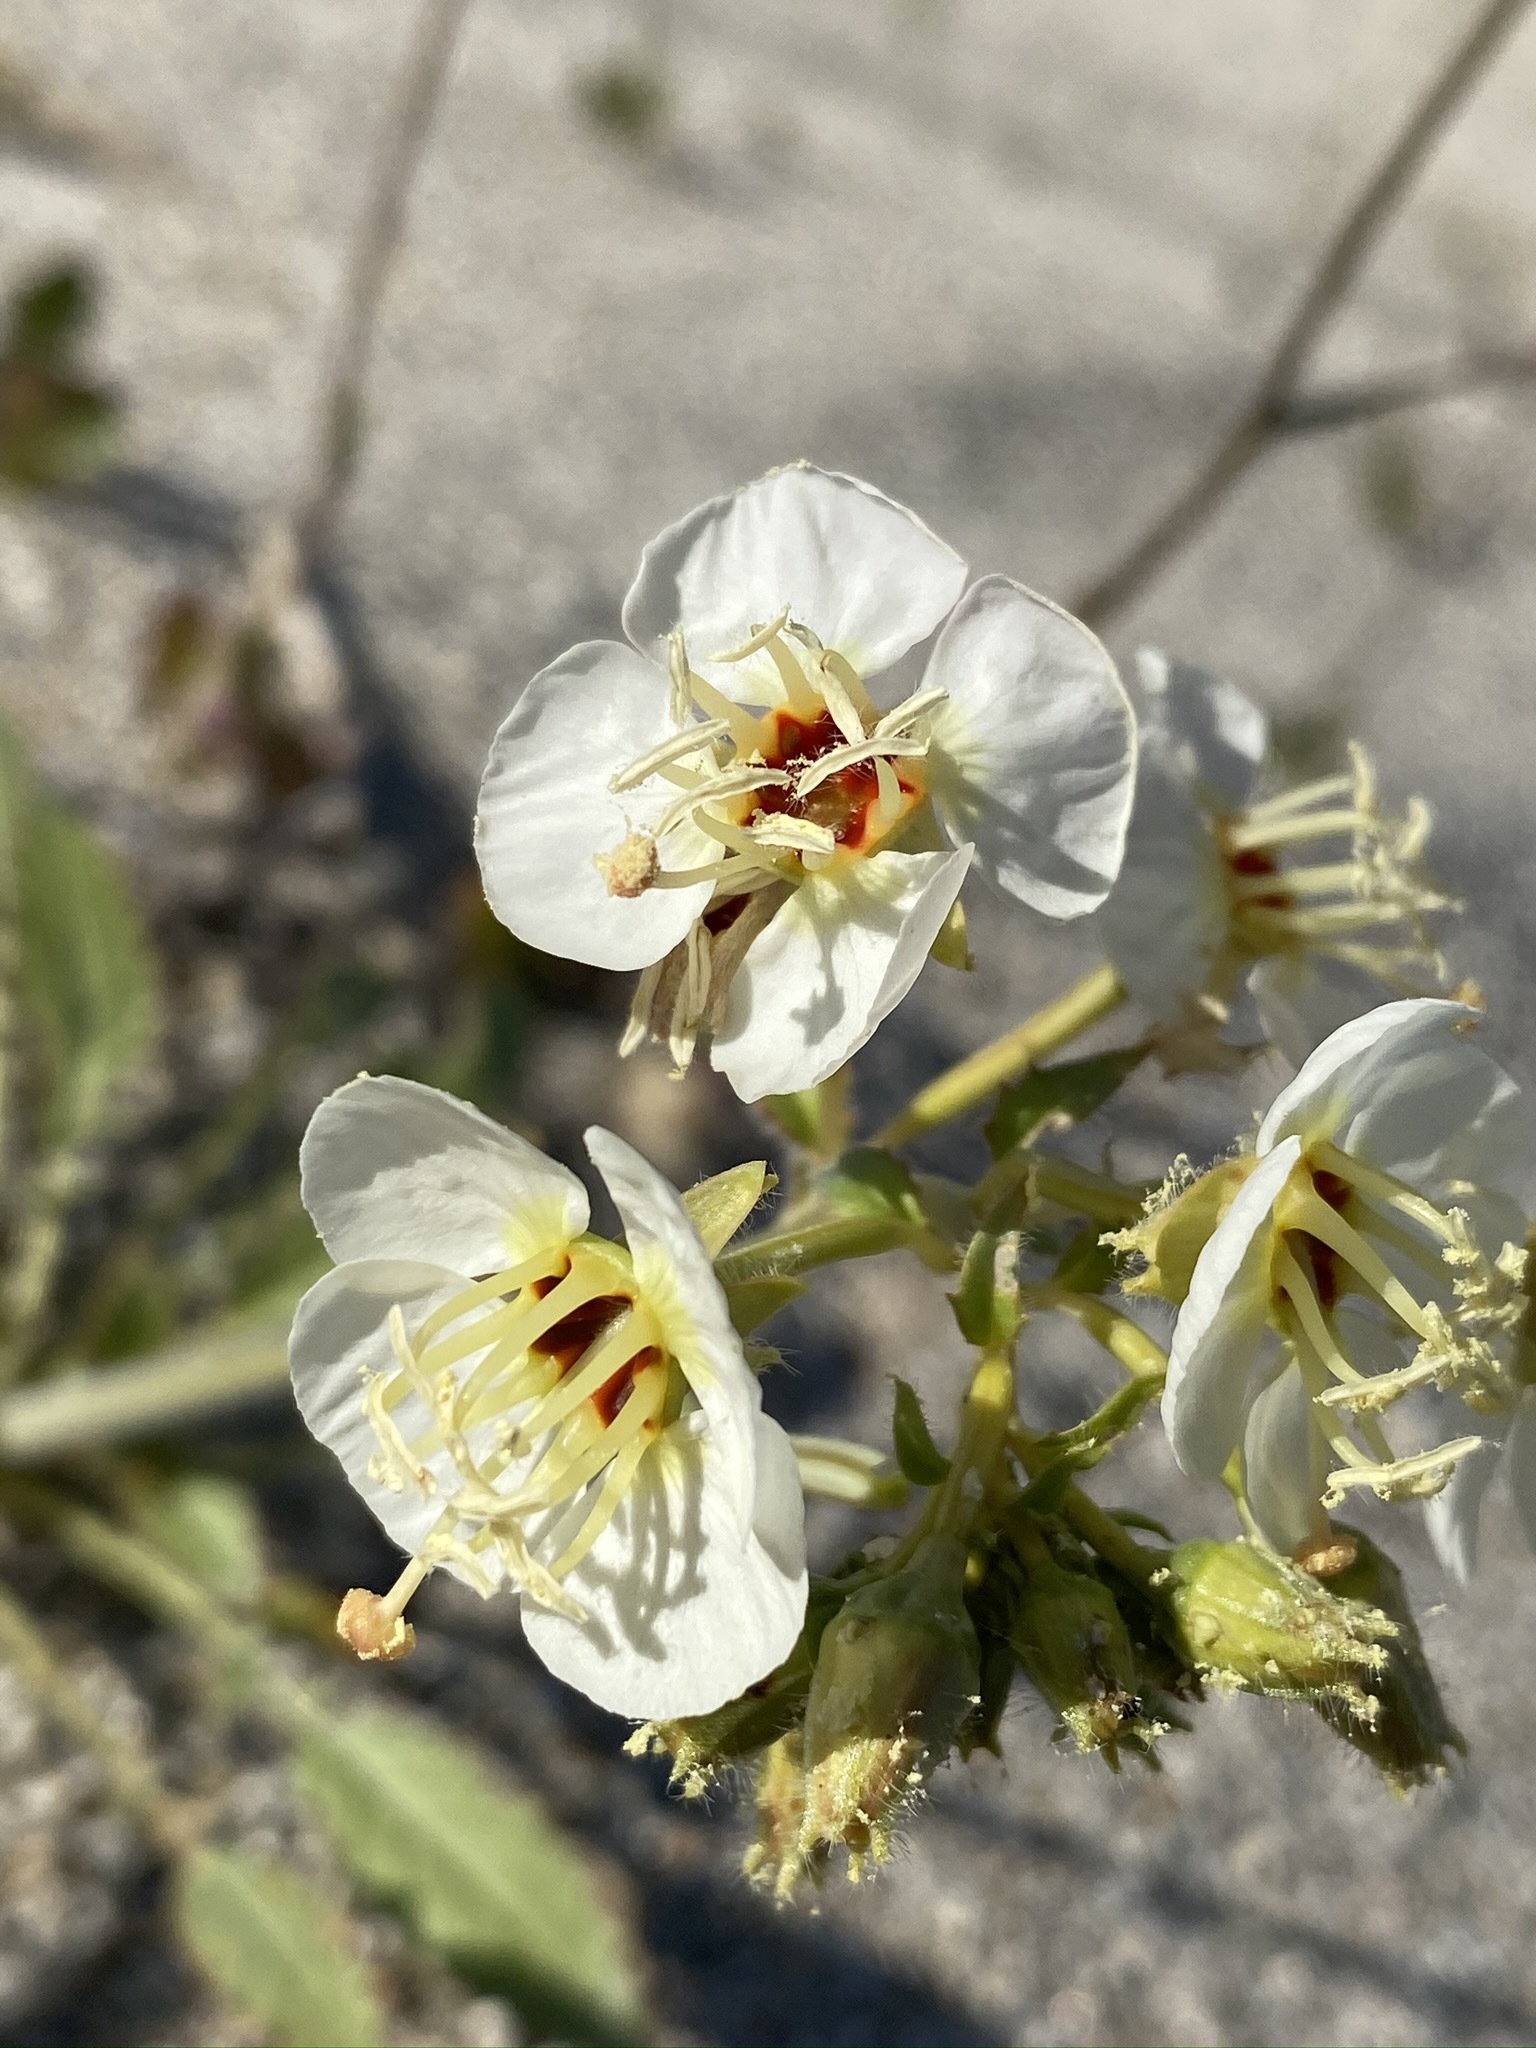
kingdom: Plantae
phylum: Tracheophyta
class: Magnoliopsida
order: Myrtales
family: Onagraceae
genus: Chylismia
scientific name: Chylismia claviformis
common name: Browneyes
